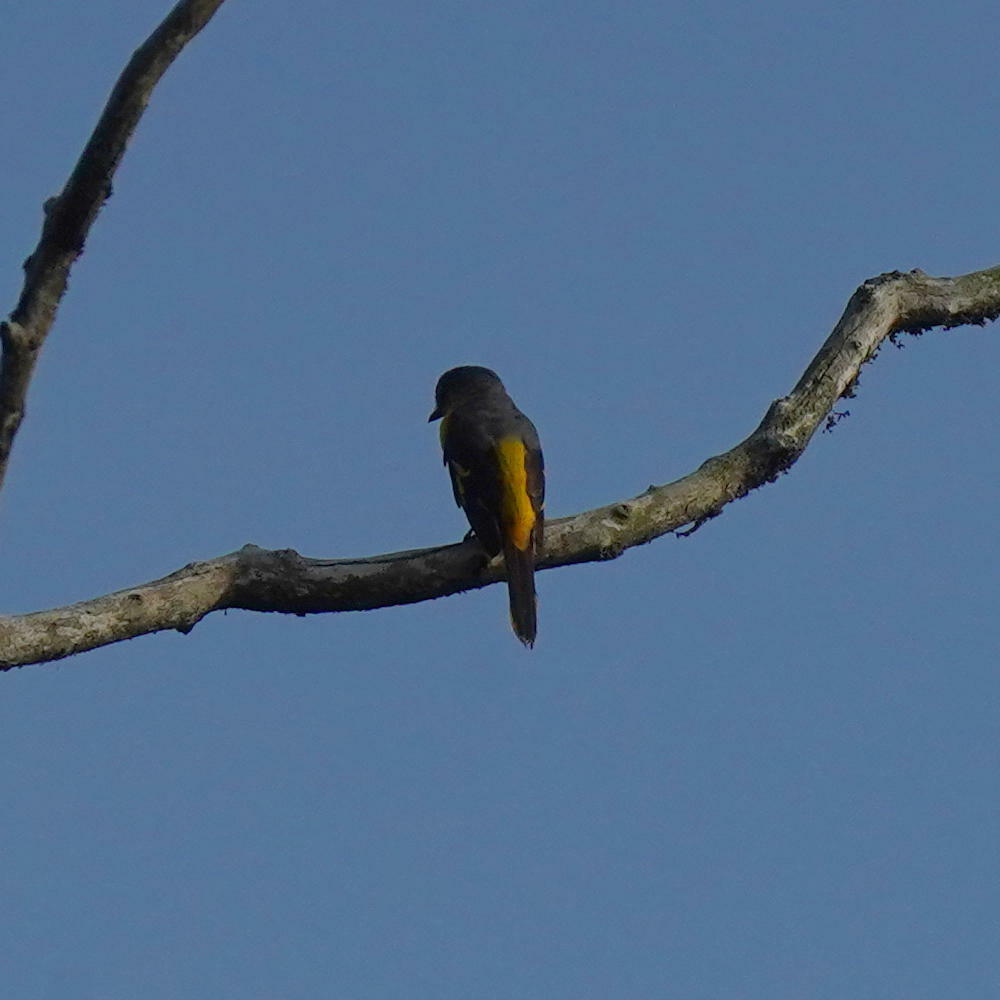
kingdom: Animalia
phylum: Chordata
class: Aves
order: Passeriformes
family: Campephagidae
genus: Pericrocotus
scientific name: Pericrocotus flammeus
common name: Orange minivet
